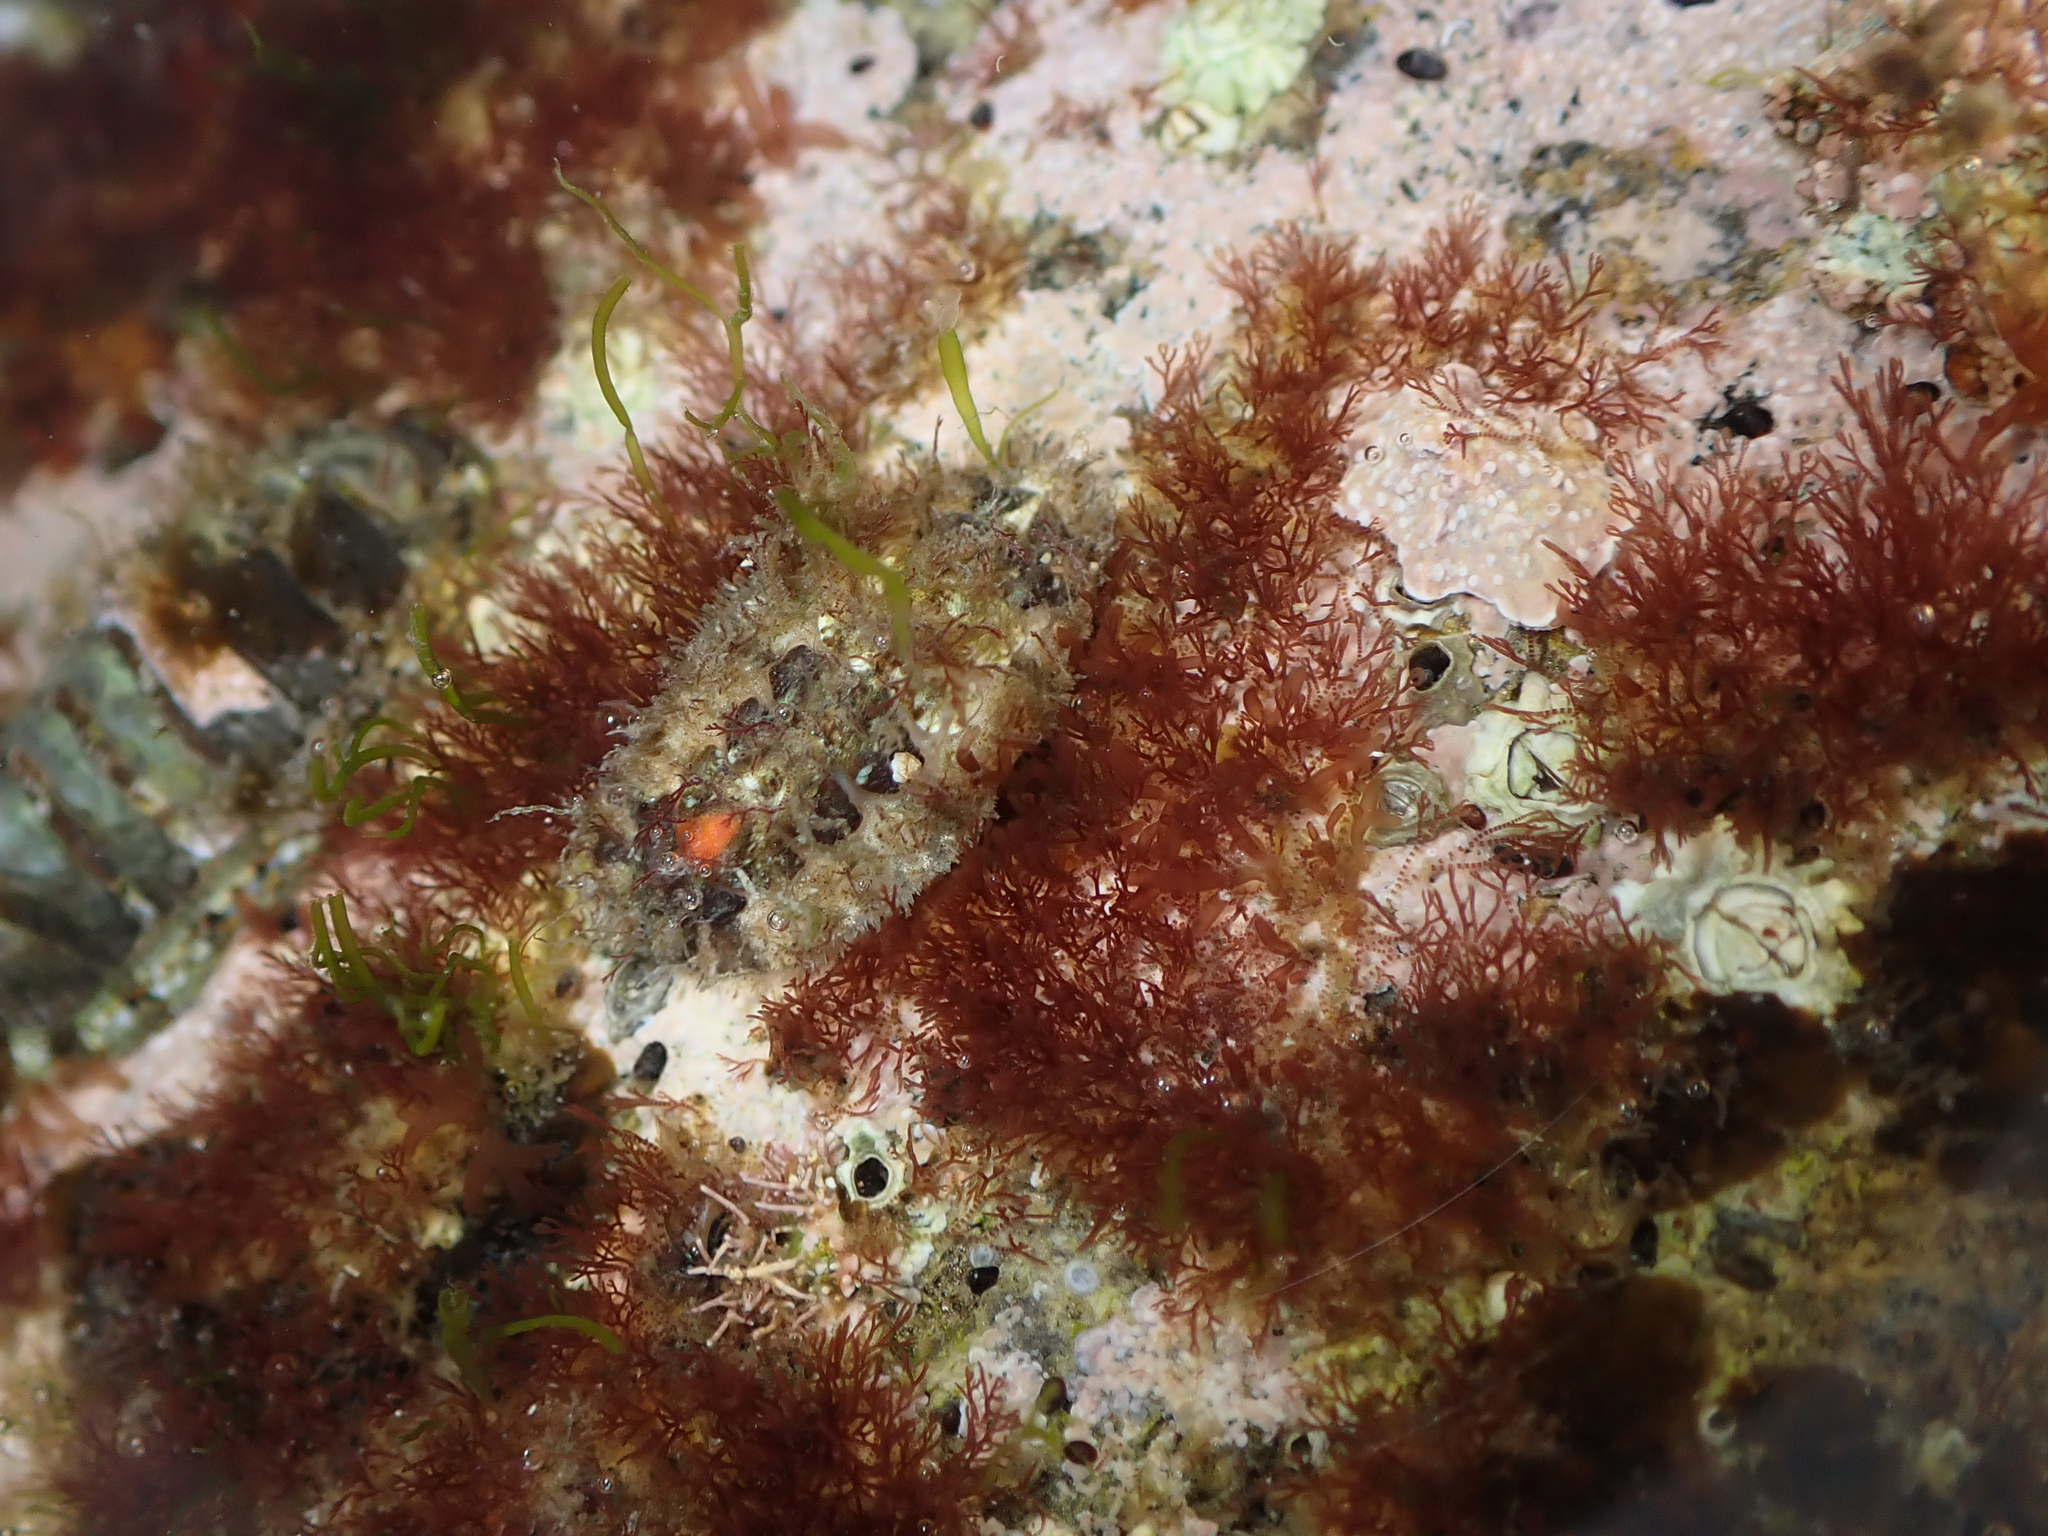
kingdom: Animalia
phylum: Mollusca
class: Polyplacophora
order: Chitonida
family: Mopaliidae
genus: Plaxiphora
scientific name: Plaxiphora caelata
